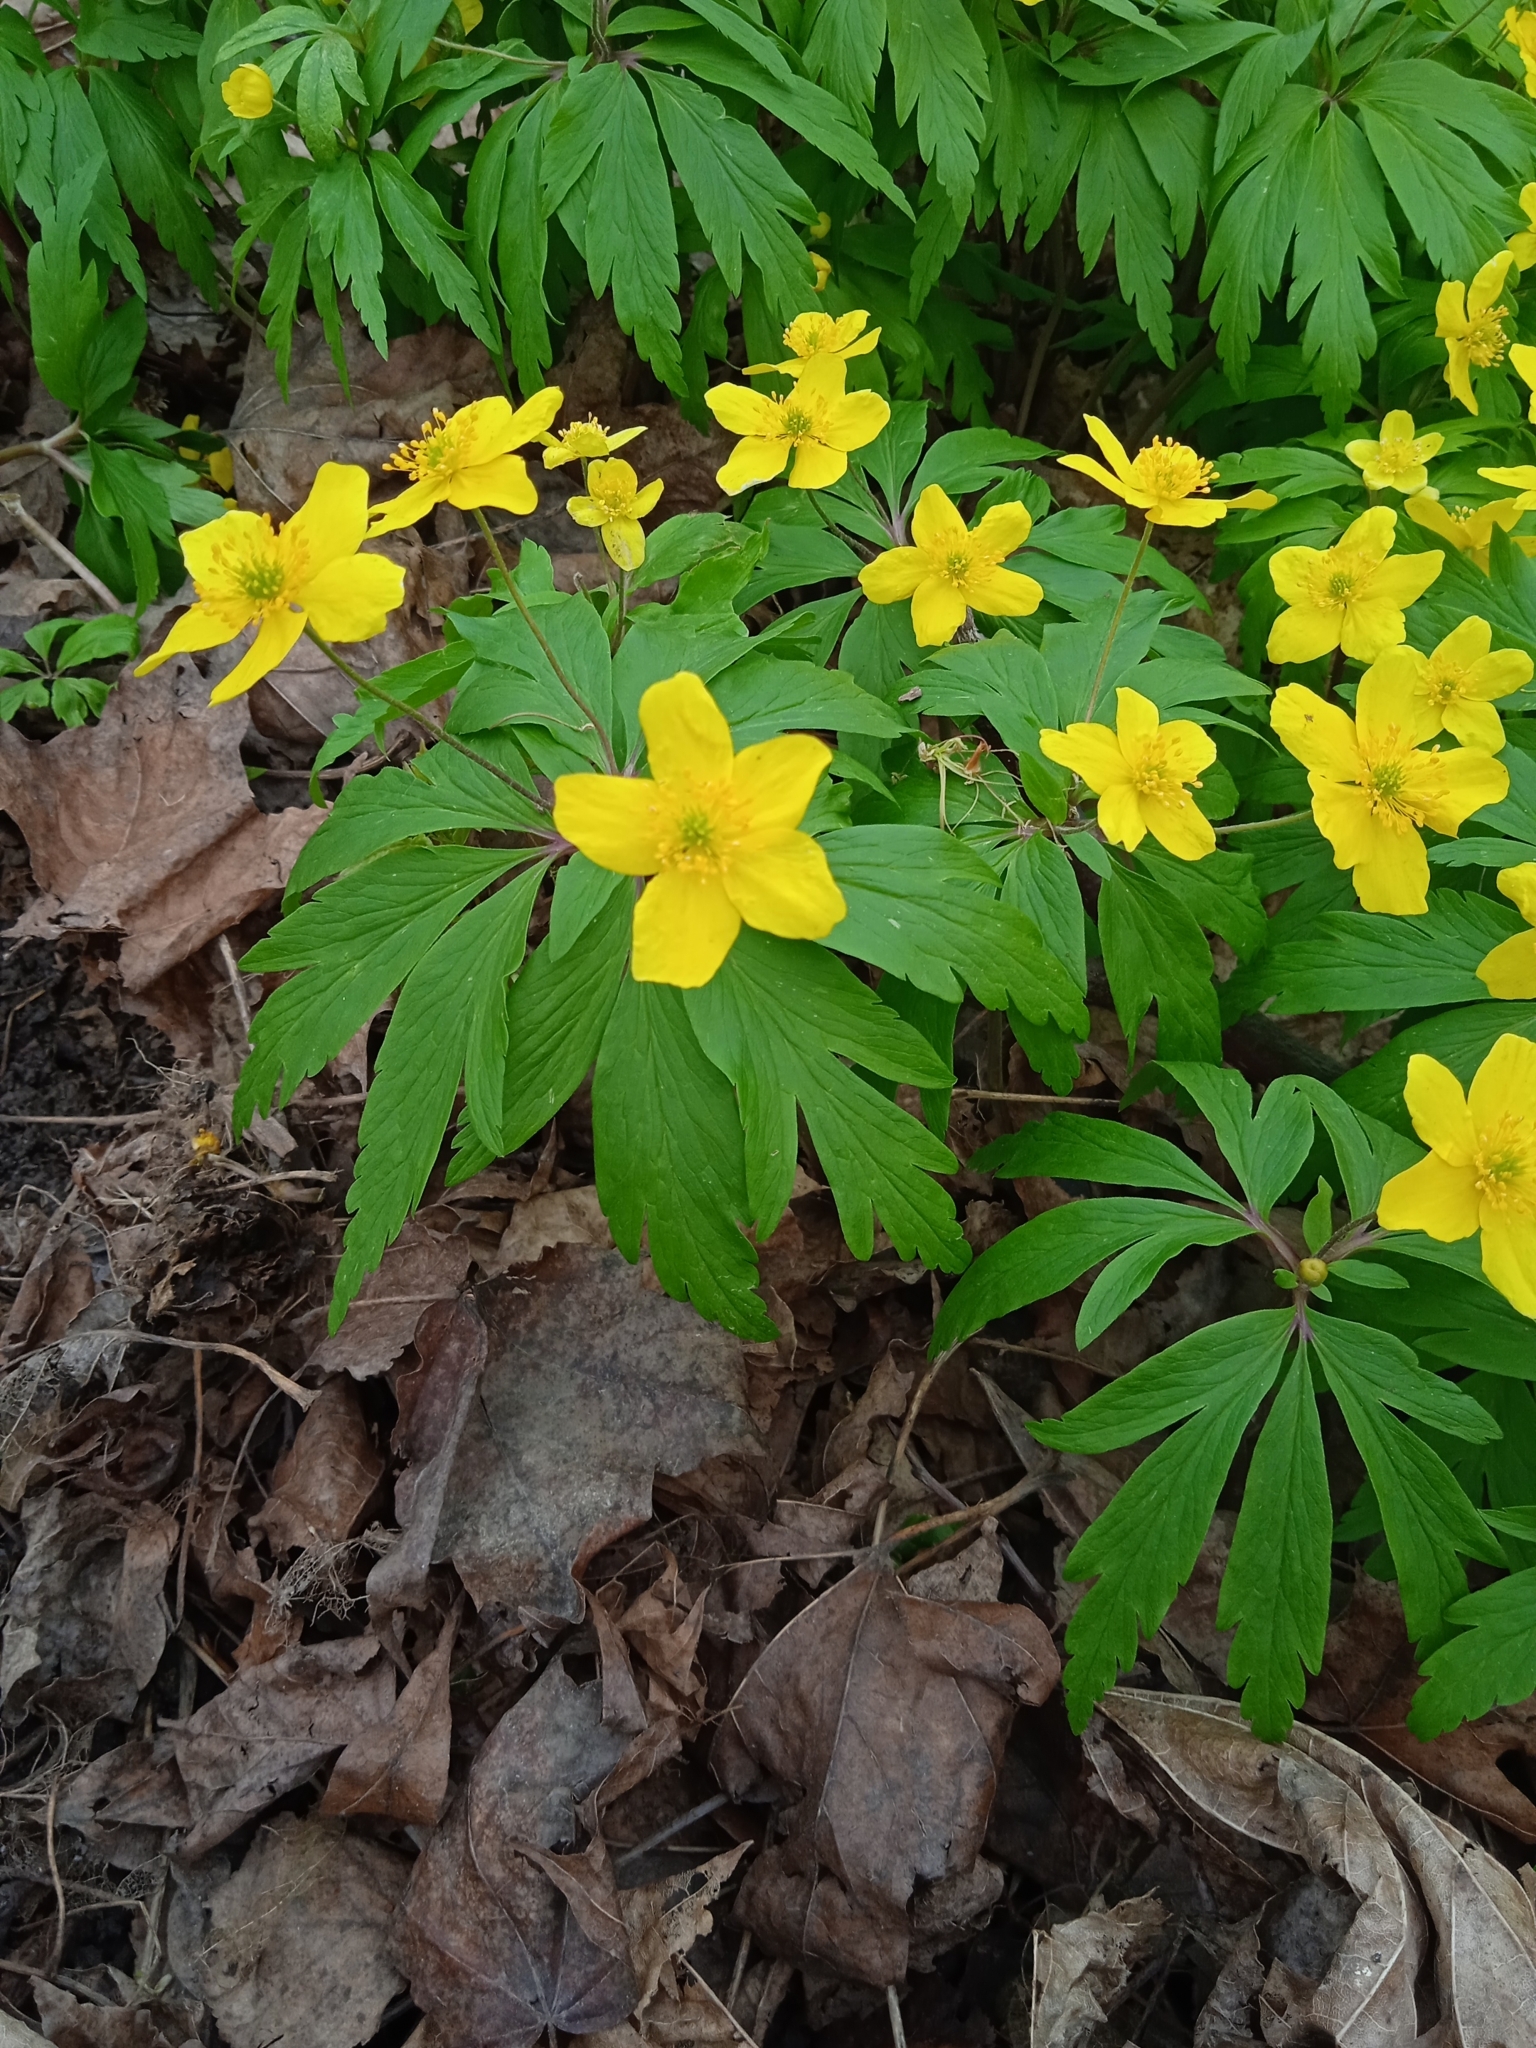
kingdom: Plantae
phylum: Tracheophyta
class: Magnoliopsida
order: Ranunculales
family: Ranunculaceae
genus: Anemone
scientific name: Anemone ranunculoides
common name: Yellow anemone
